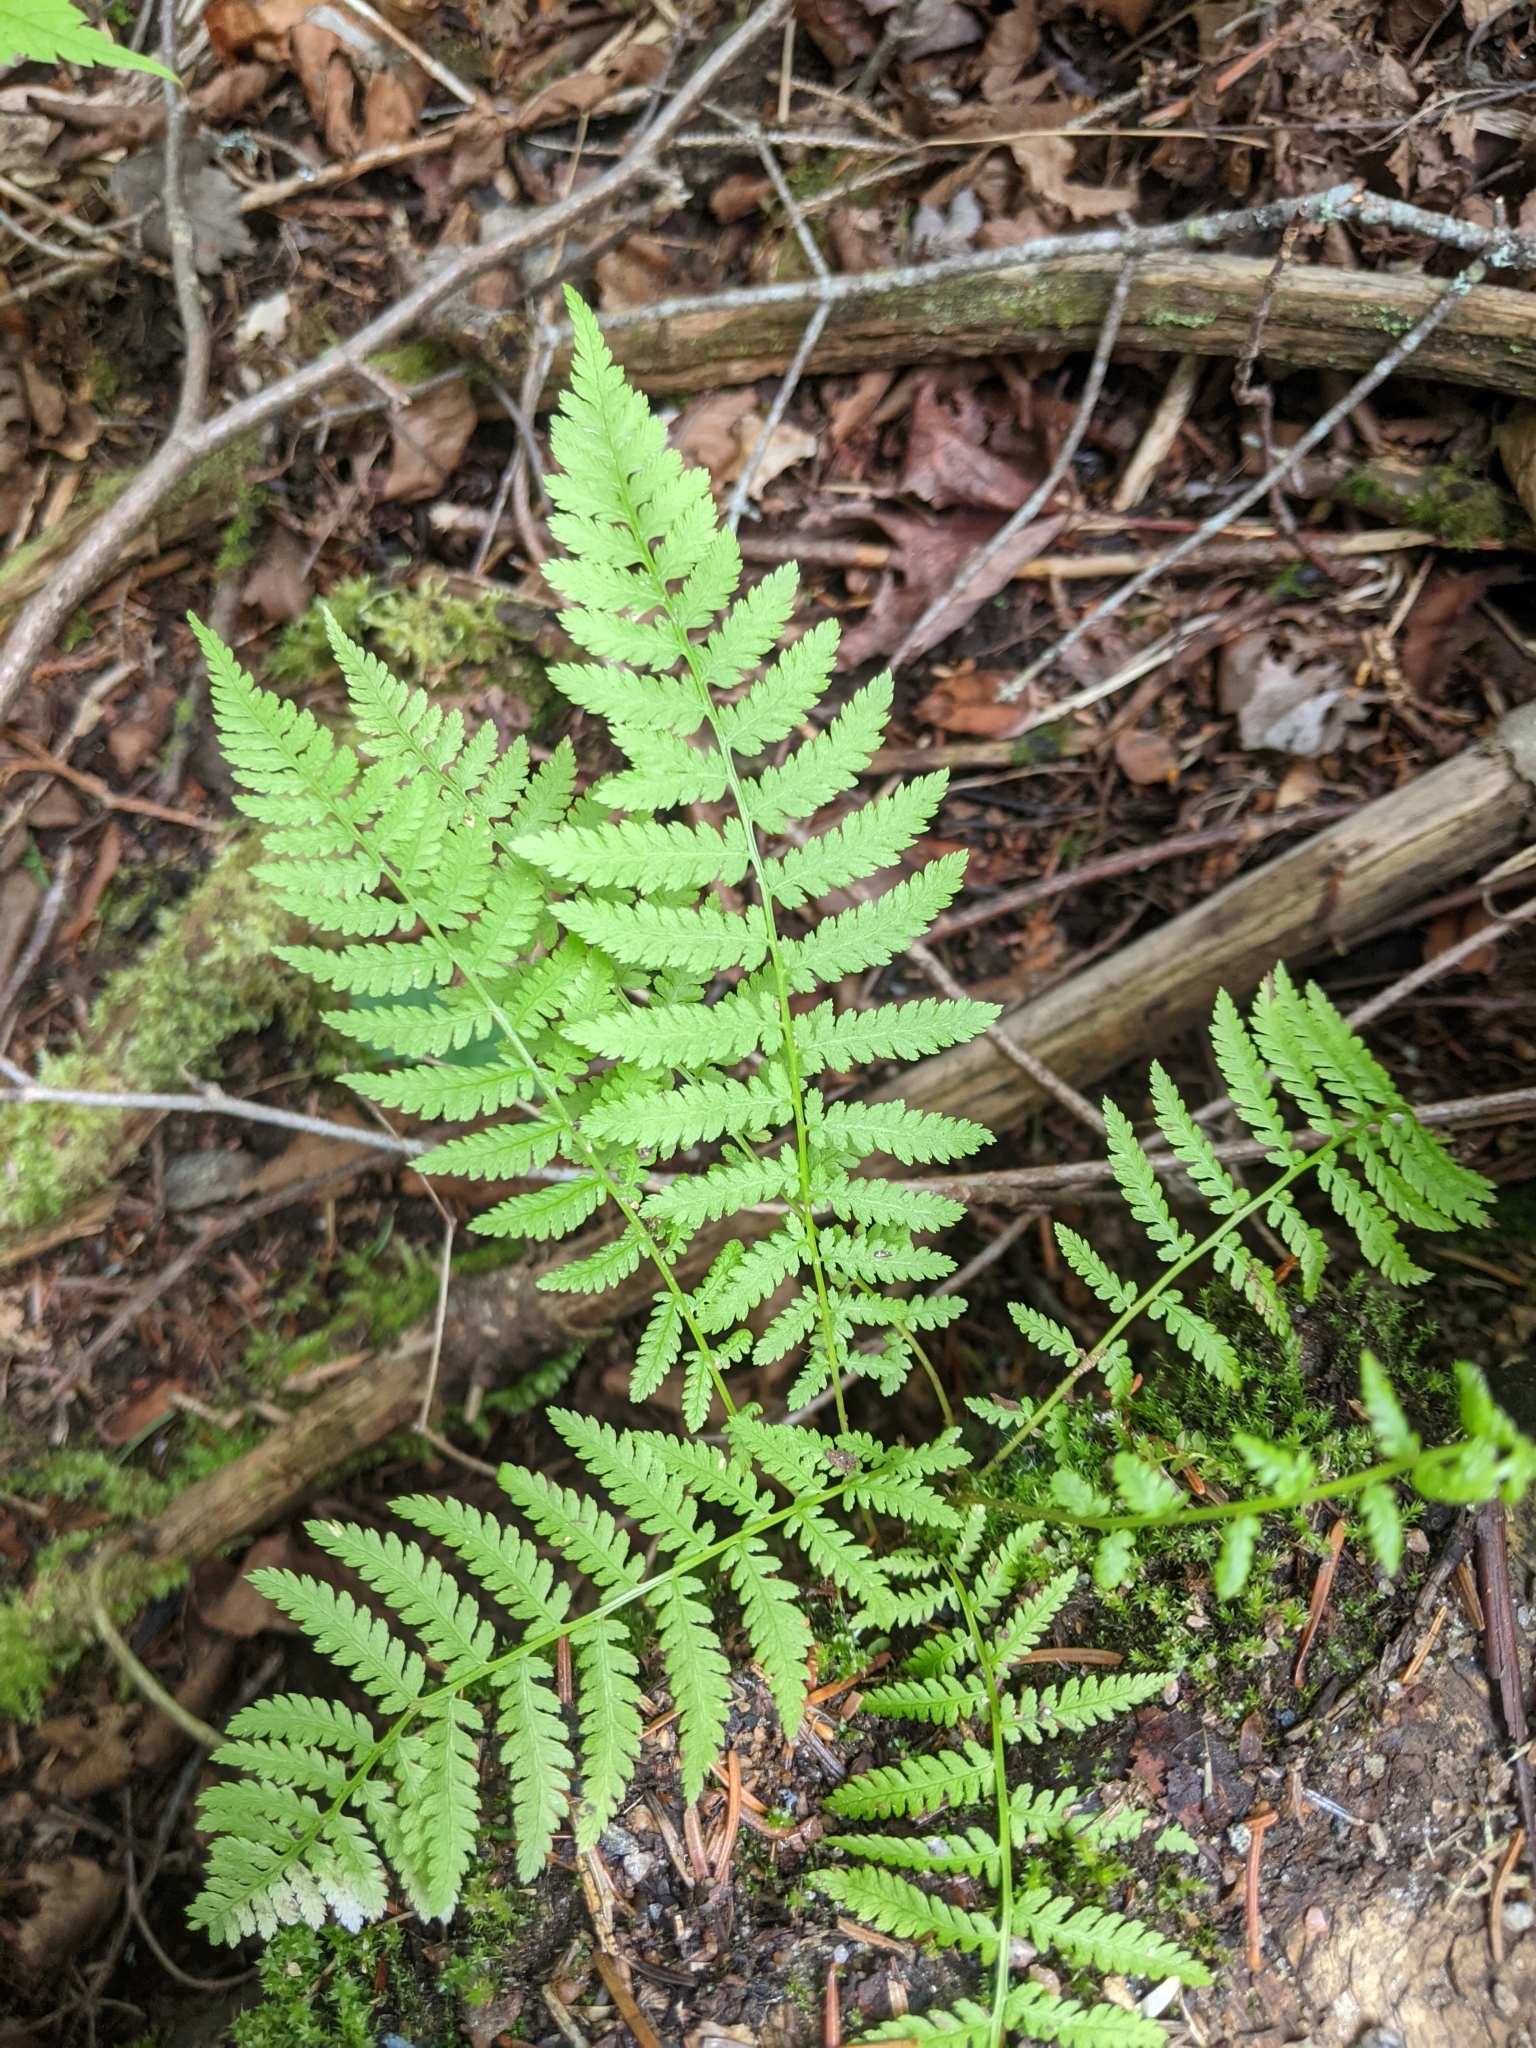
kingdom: Plantae
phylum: Tracheophyta
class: Polypodiopsida
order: Polypodiales
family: Athyriaceae
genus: Athyrium
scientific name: Athyrium angustum
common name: Northern lady fern
